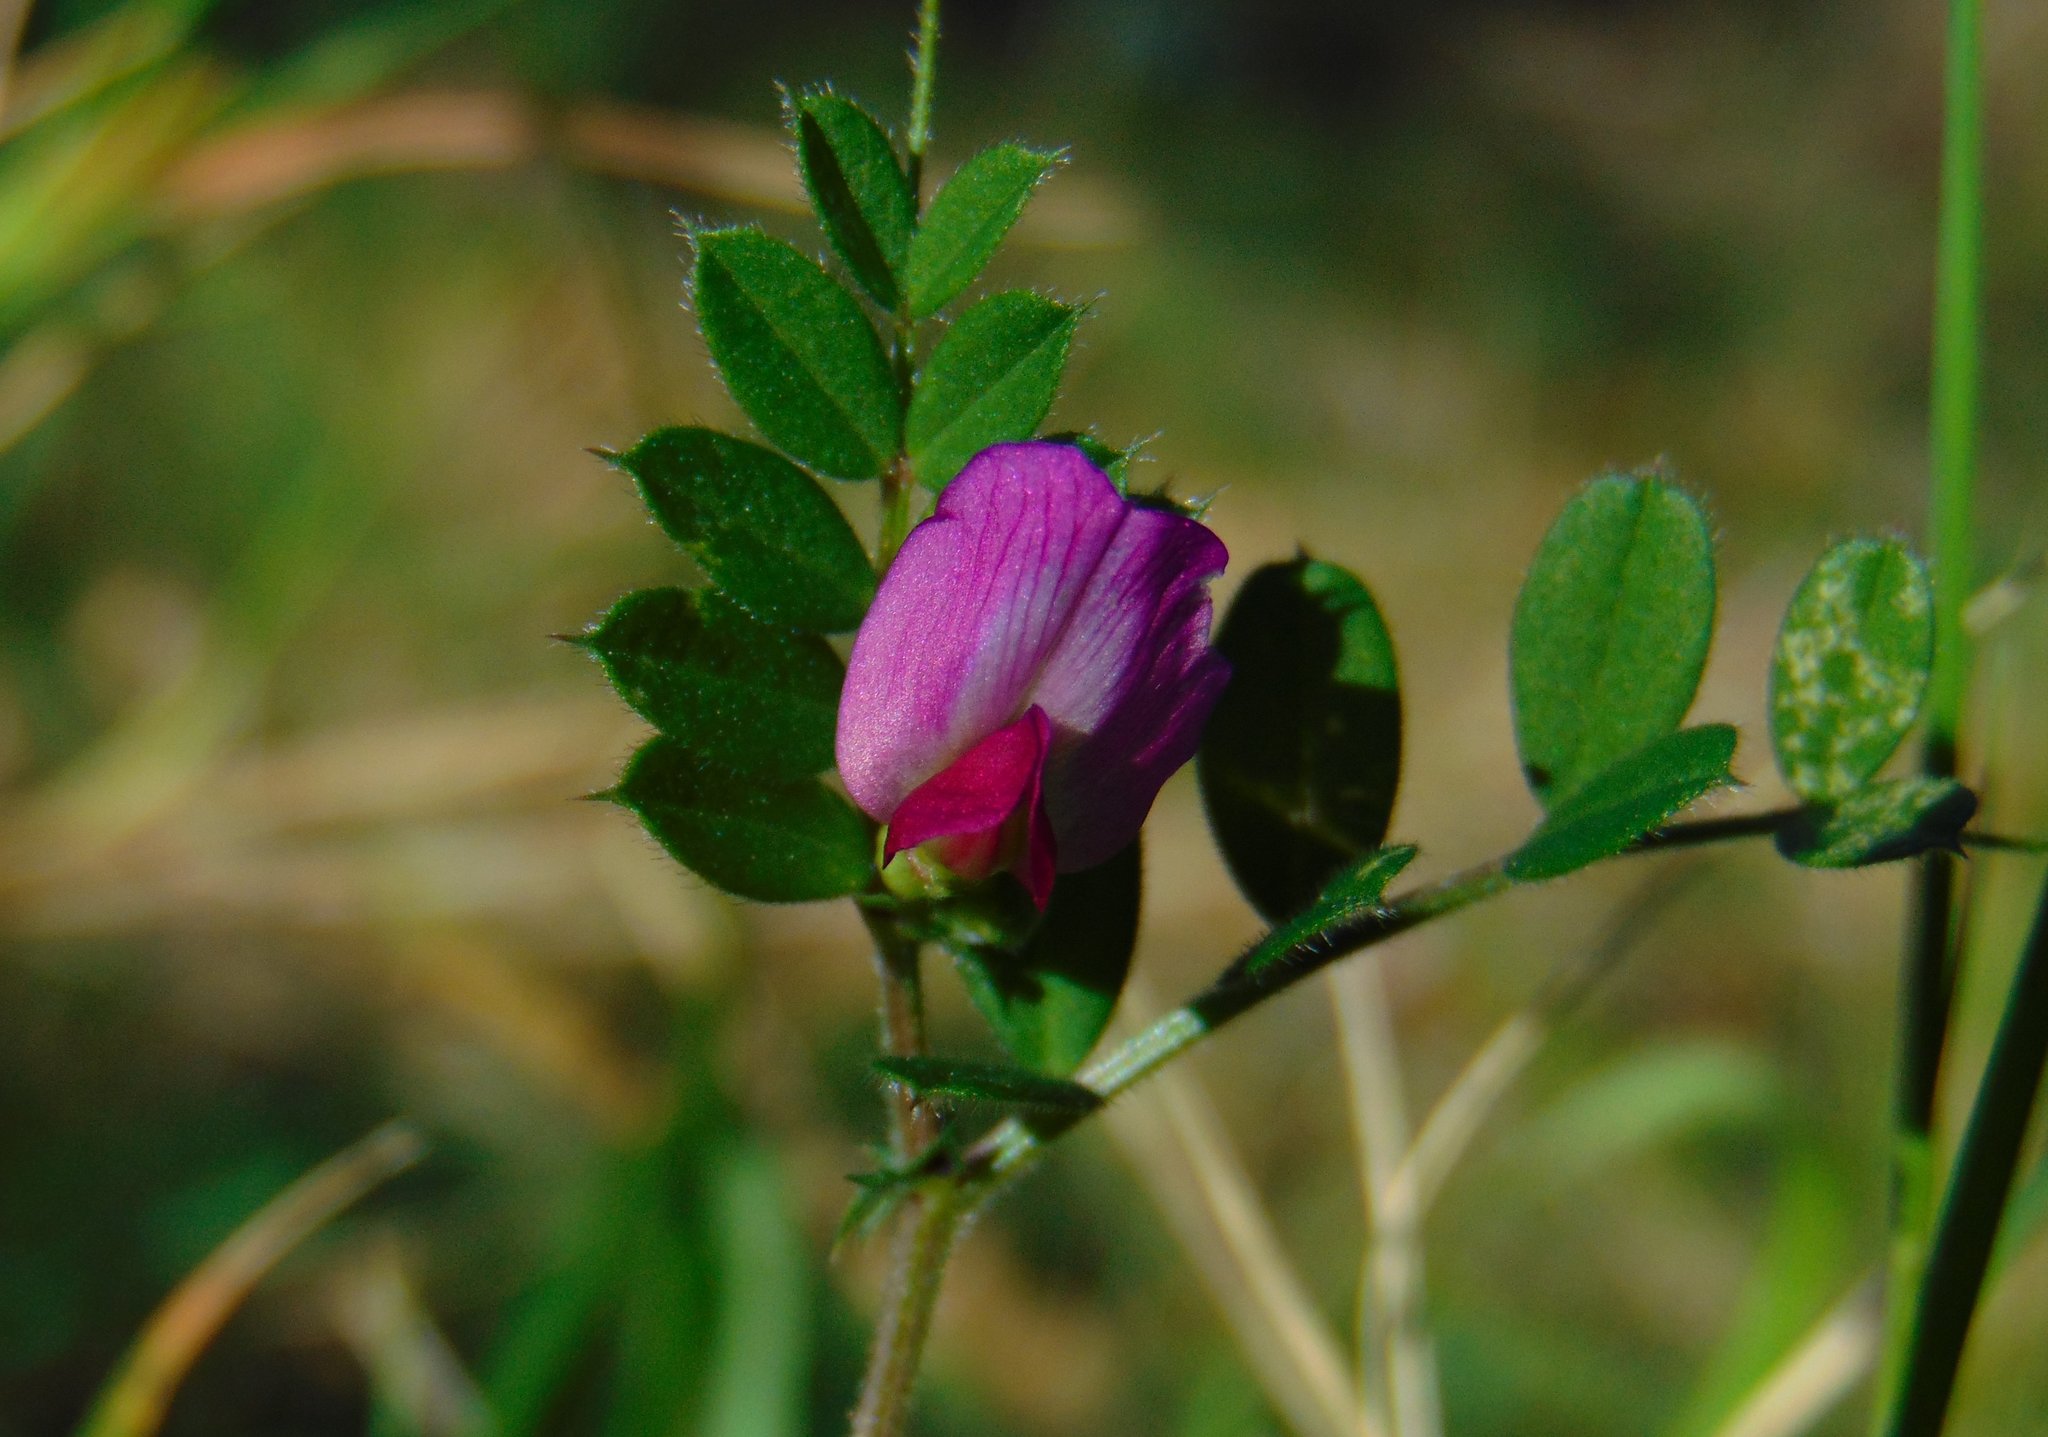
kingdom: Plantae
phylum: Tracheophyta
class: Magnoliopsida
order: Fabales
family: Fabaceae
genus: Vicia
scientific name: Vicia sativa
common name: Garden vetch
